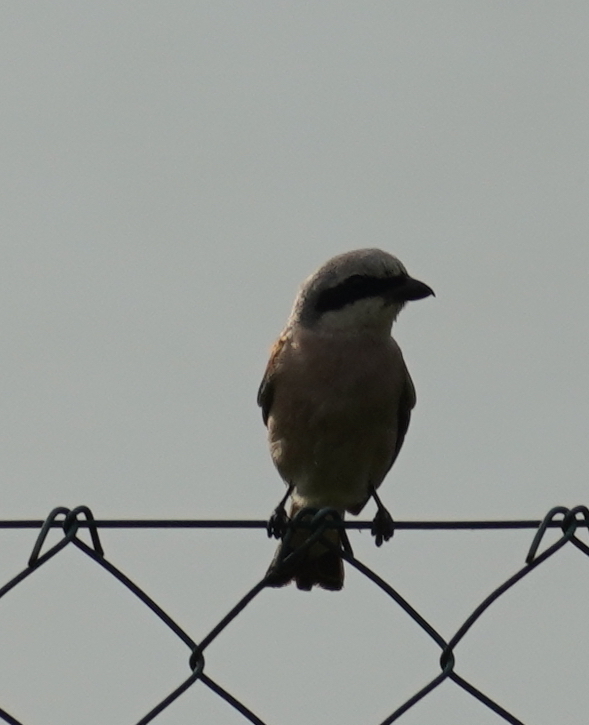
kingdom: Animalia
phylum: Chordata
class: Aves
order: Passeriformes
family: Laniidae
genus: Lanius
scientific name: Lanius collurio
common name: Red-backed shrike
